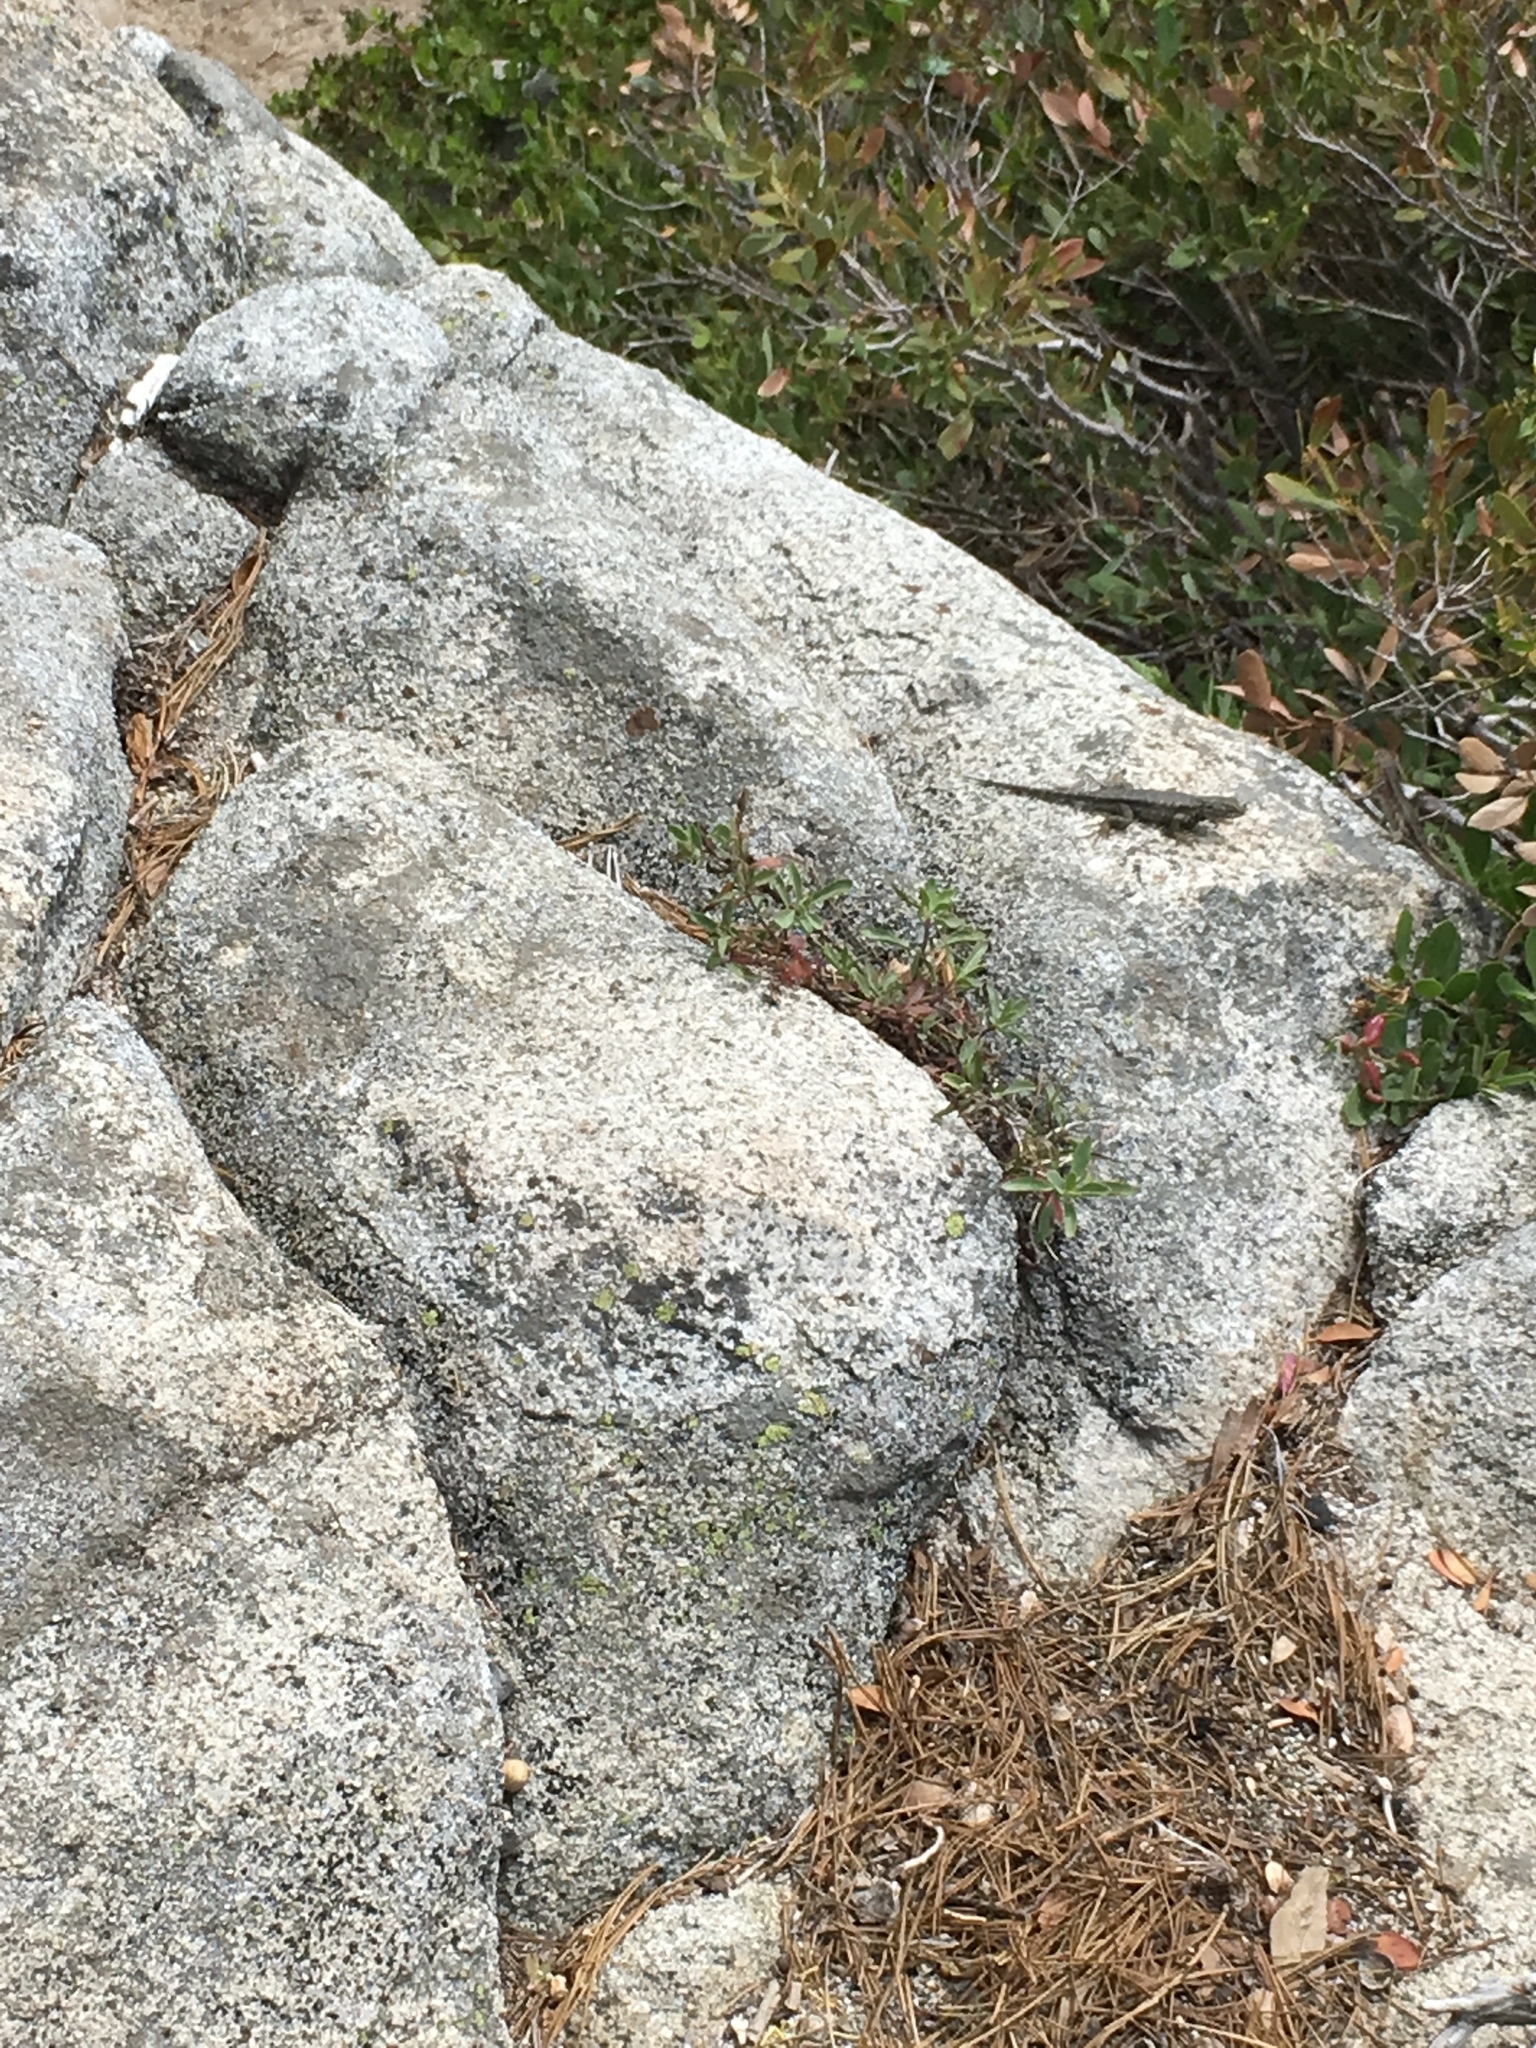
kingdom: Animalia
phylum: Chordata
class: Squamata
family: Phrynosomatidae
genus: Sceloporus
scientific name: Sceloporus occidentalis
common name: Western fence lizard
